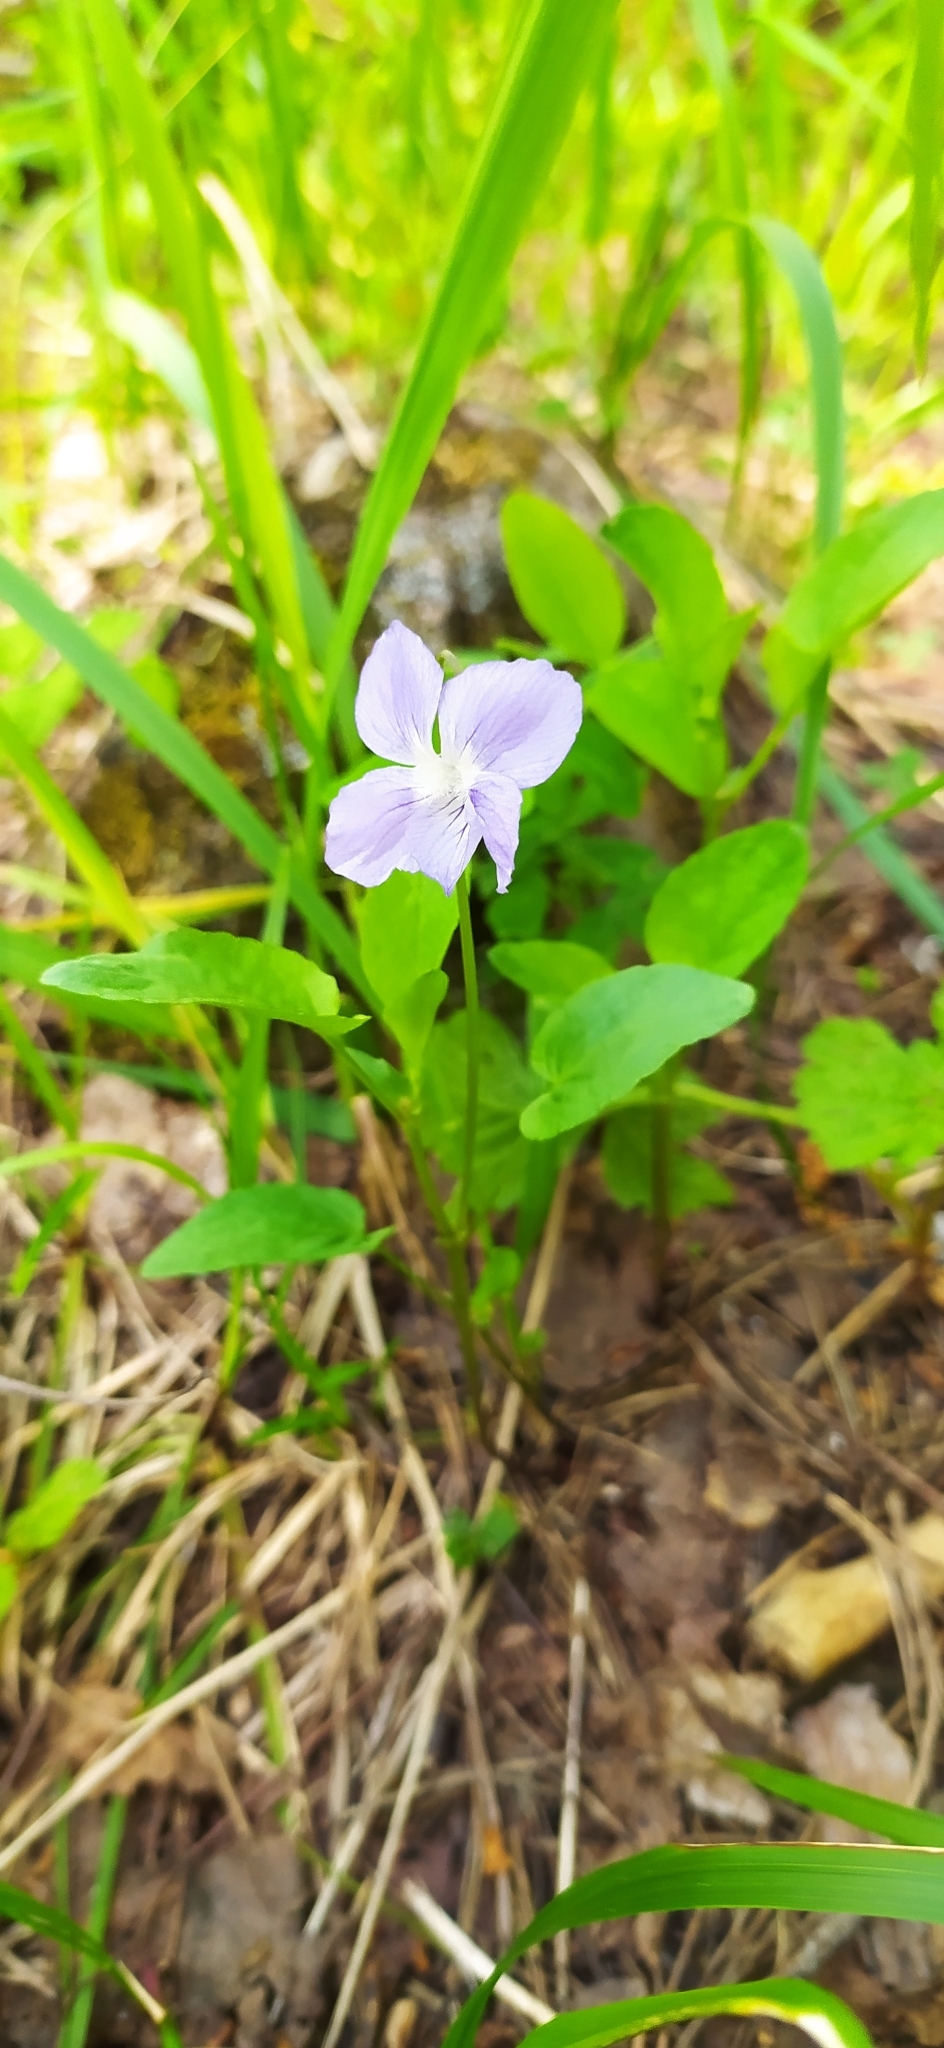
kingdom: Plantae
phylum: Tracheophyta
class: Magnoliopsida
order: Malpighiales
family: Violaceae
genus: Viola
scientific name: Viola canina
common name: Heath dog-violet
